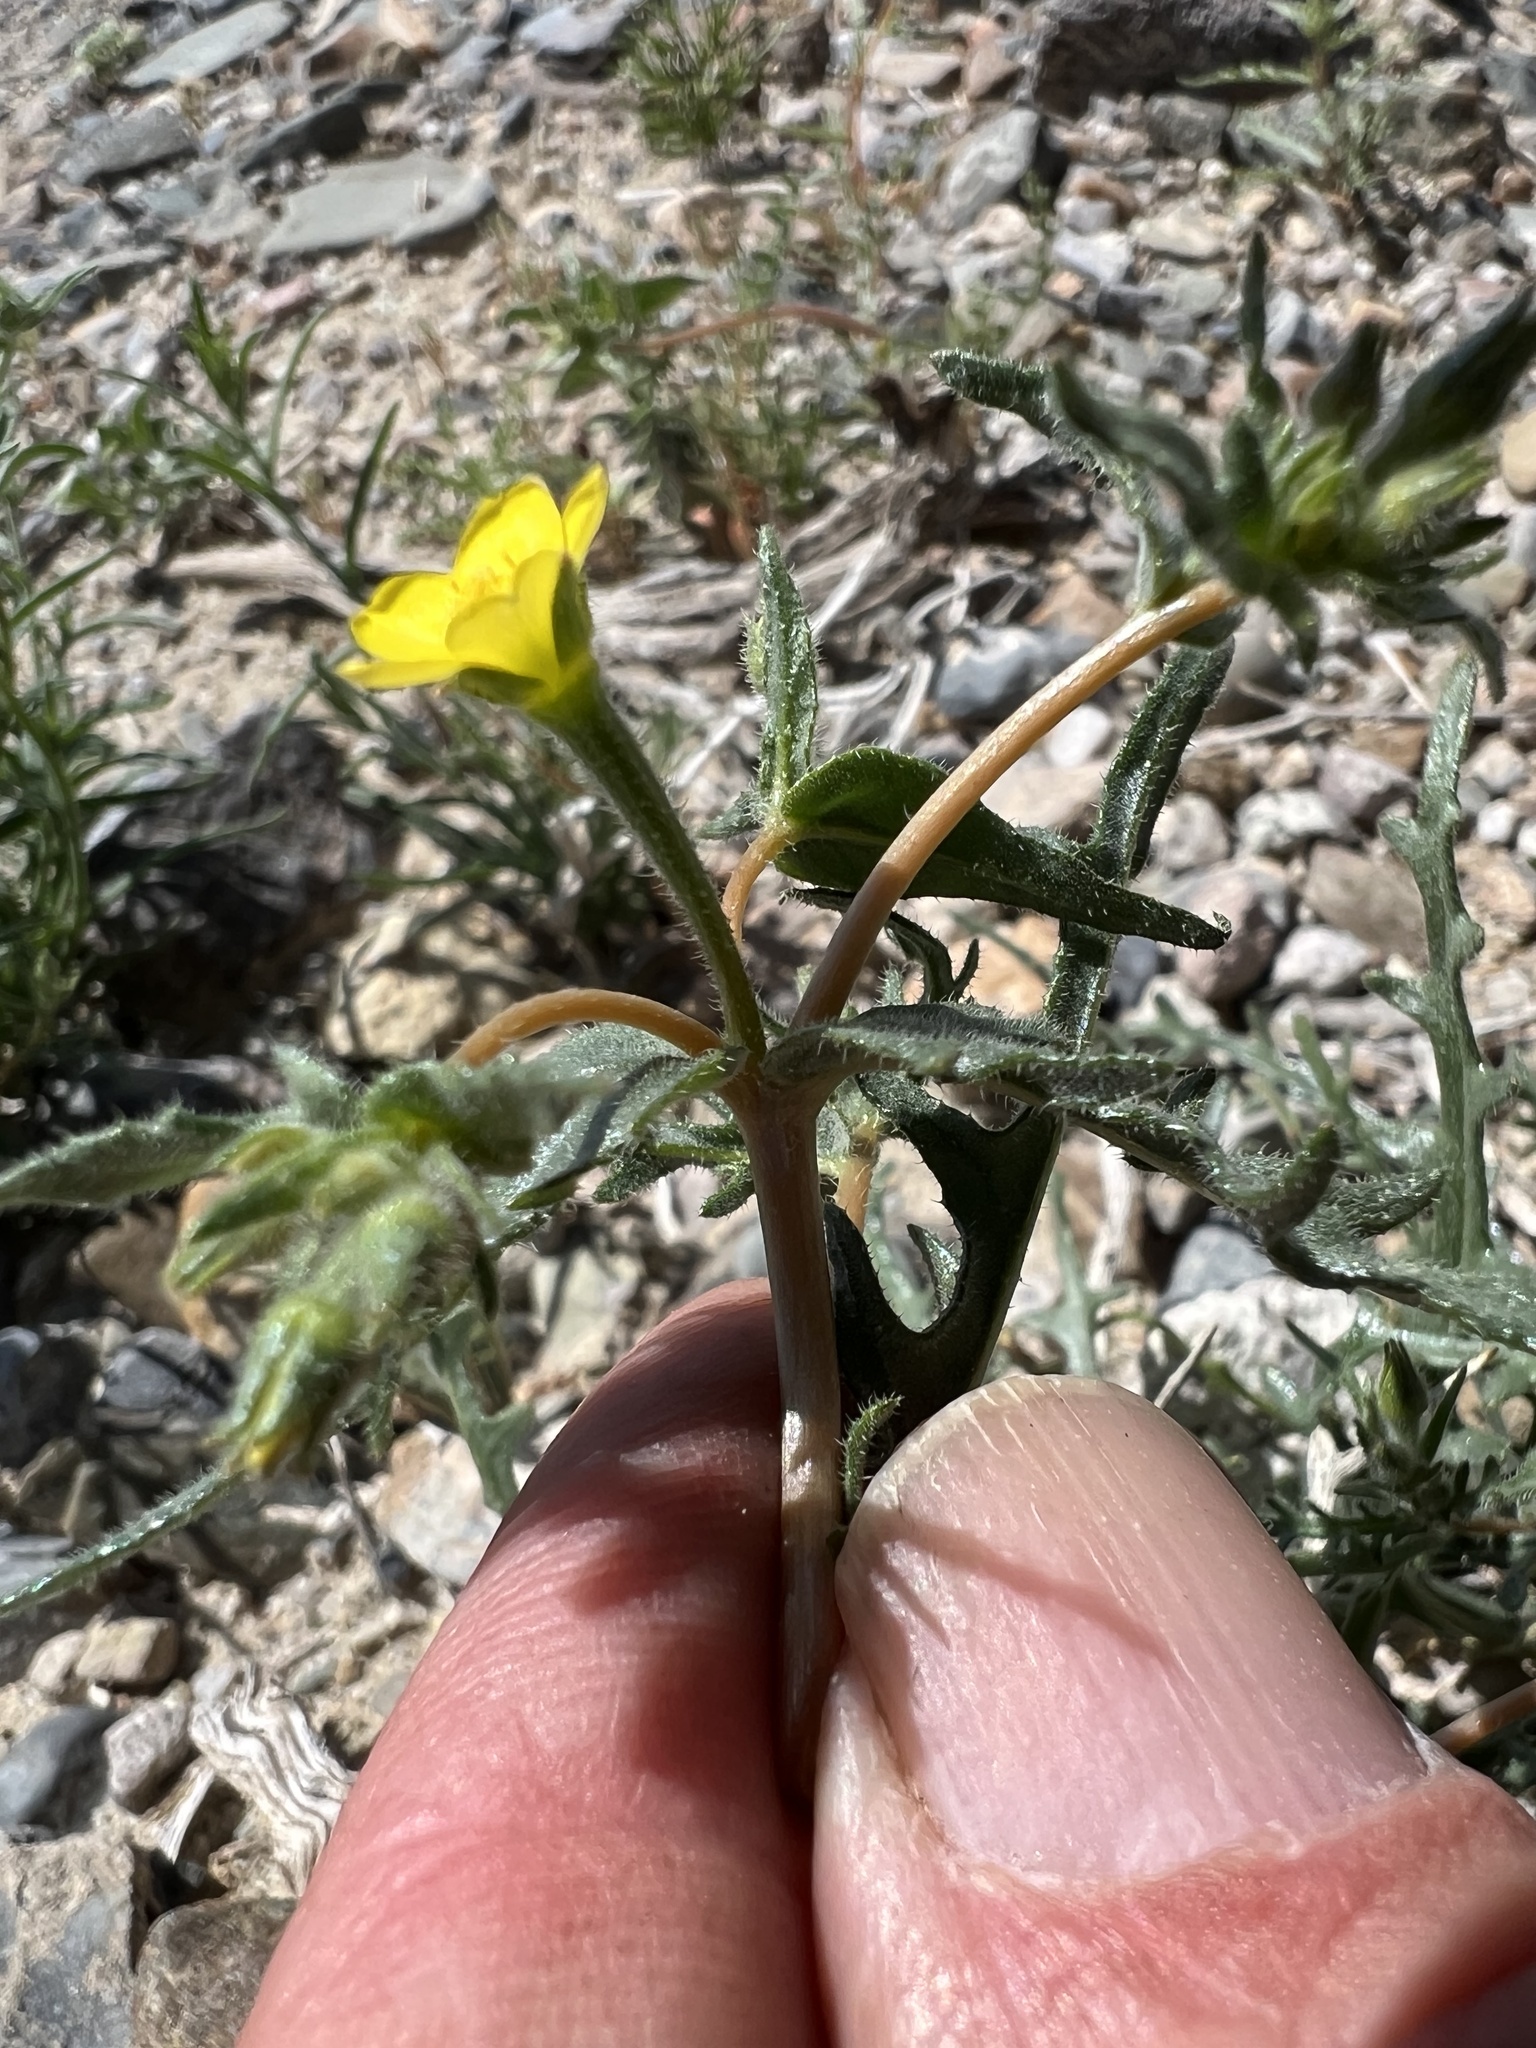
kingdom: Plantae
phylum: Tracheophyta
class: Magnoliopsida
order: Cornales
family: Loasaceae
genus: Mentzelia
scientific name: Mentzelia albicaulis
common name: White-stem blazingstar
